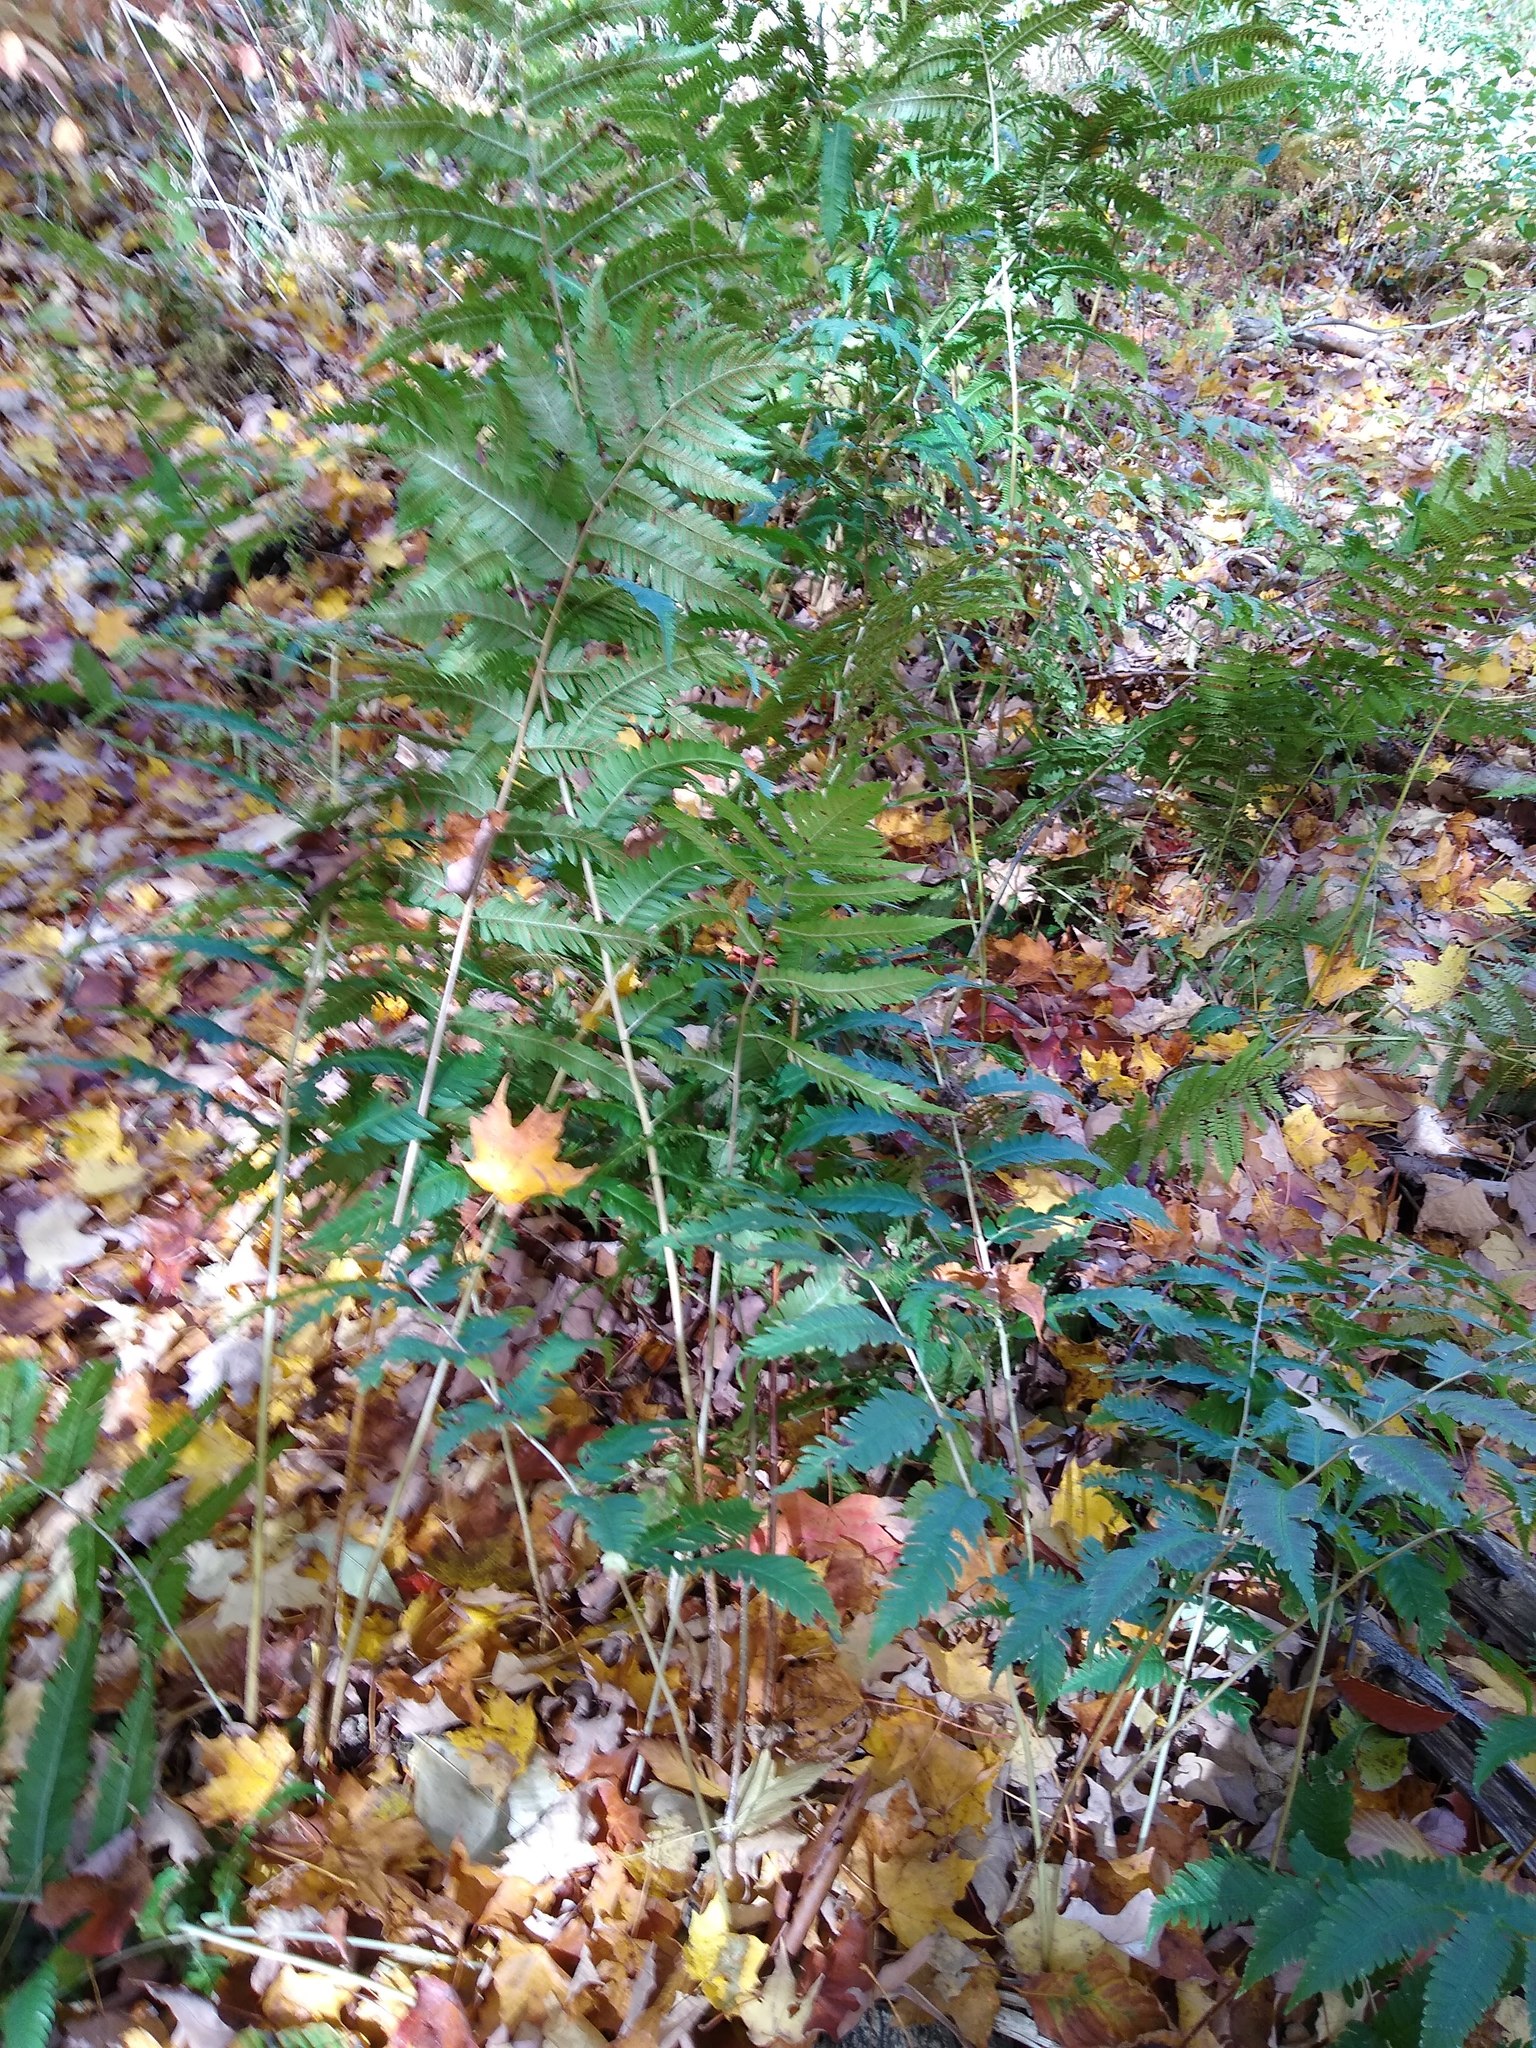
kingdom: Plantae
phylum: Tracheophyta
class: Polypodiopsida
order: Polypodiales
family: Dryopteridaceae
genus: Dryopteris
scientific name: Dryopteris goldieana
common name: Goldie's fern
